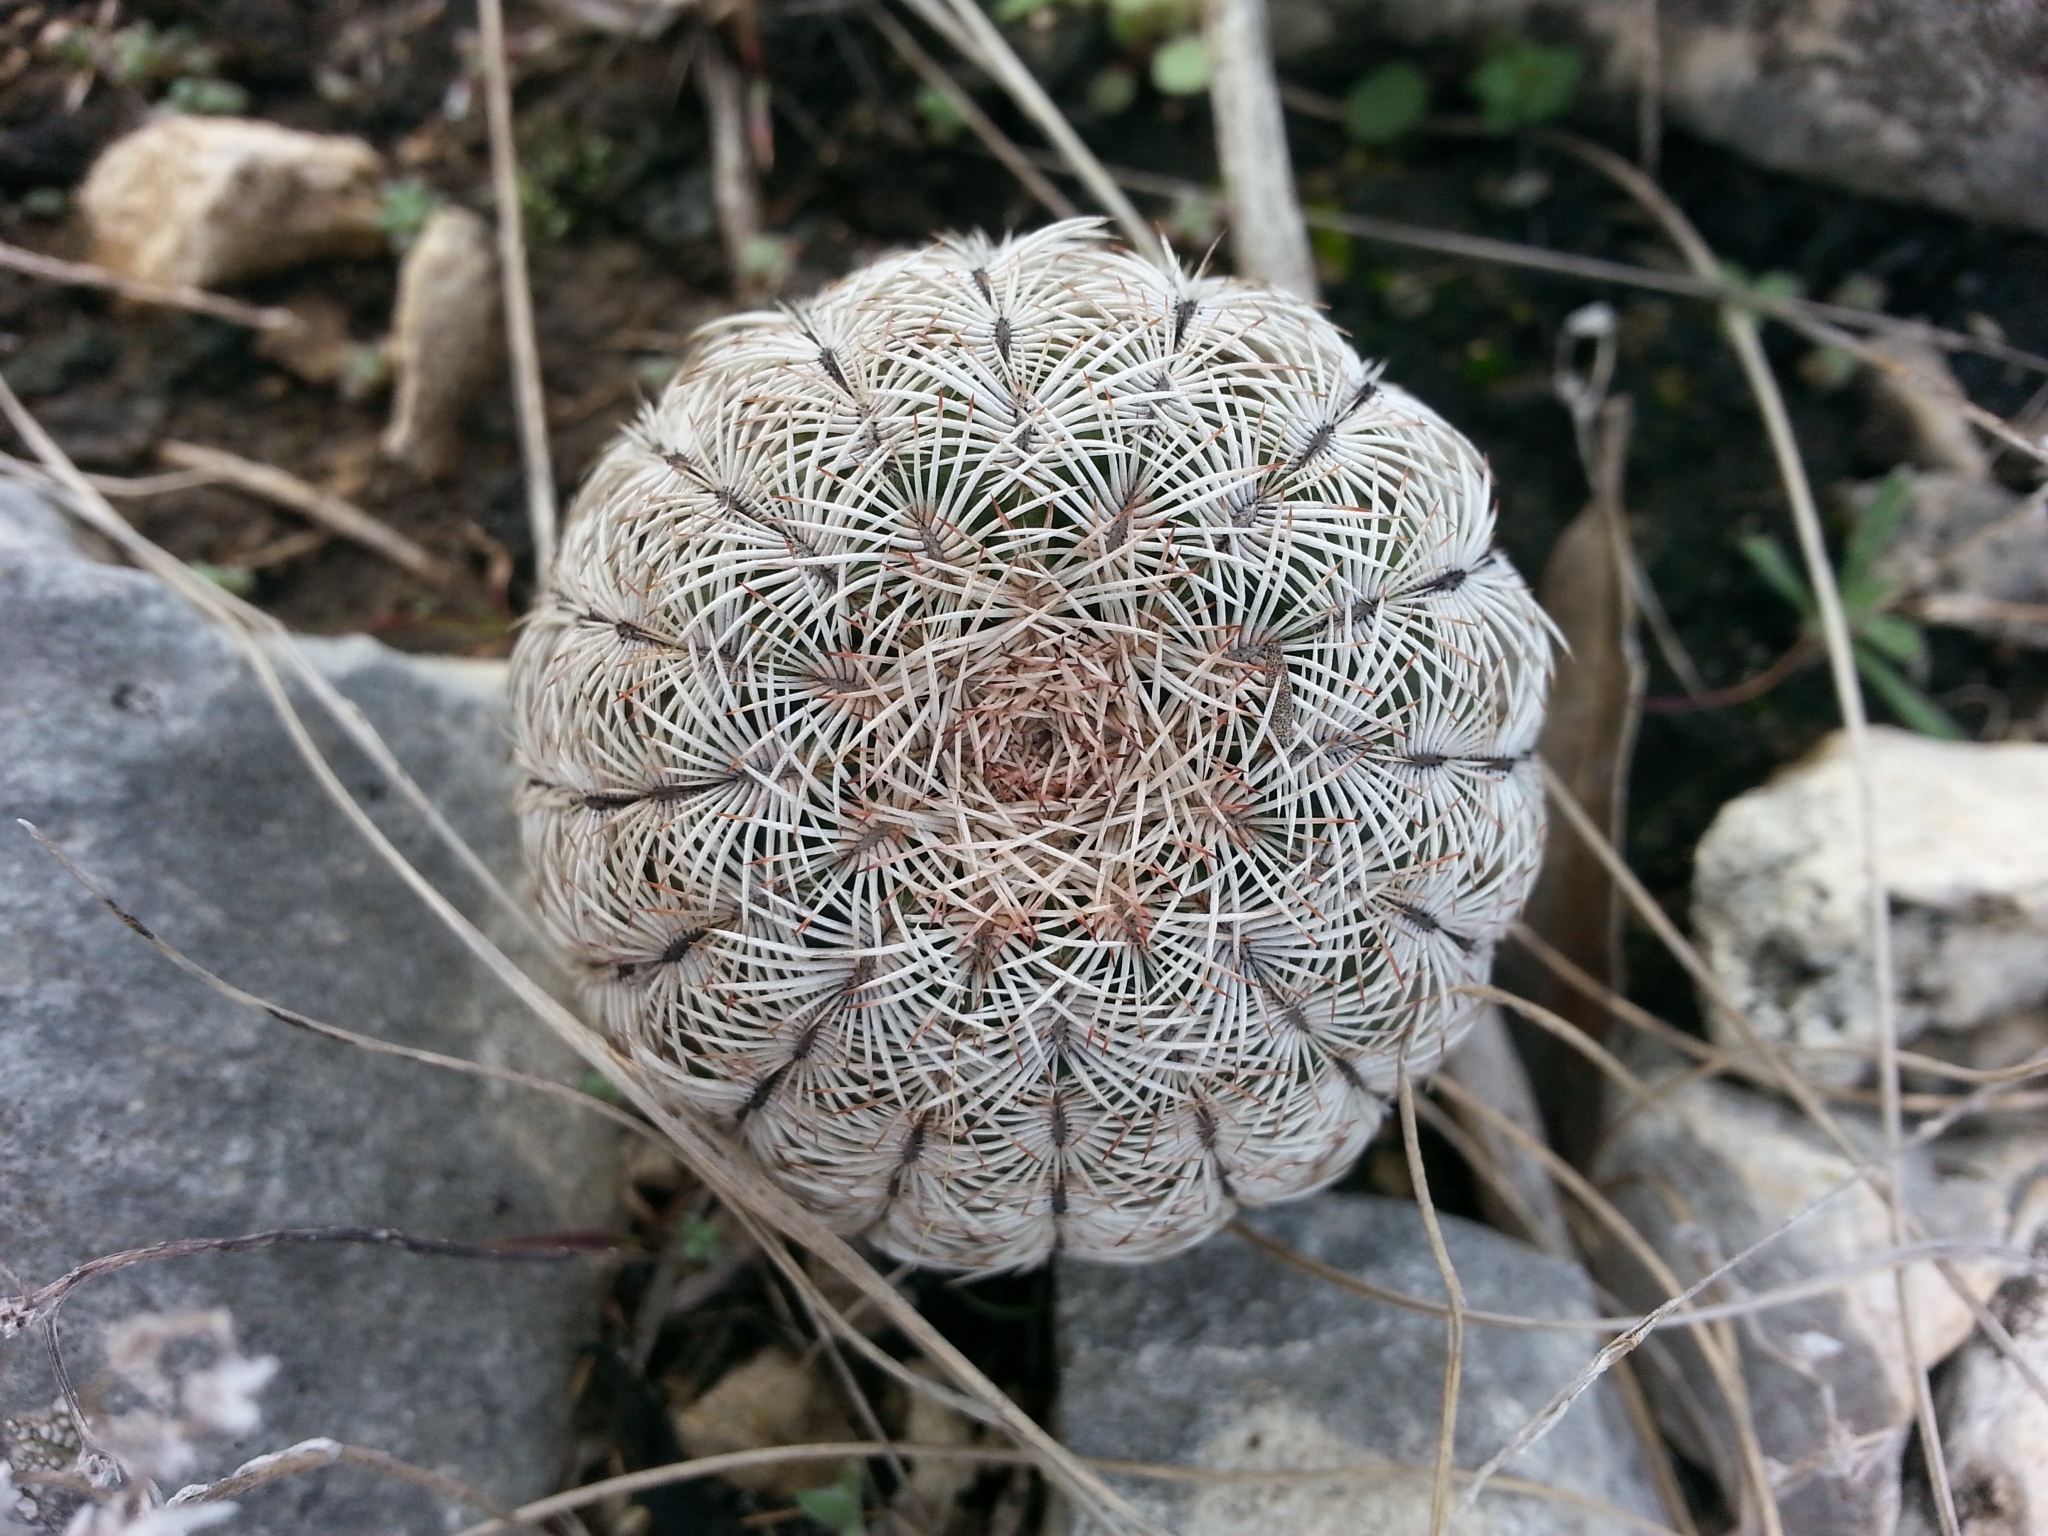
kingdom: Plantae
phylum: Tracheophyta
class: Magnoliopsida
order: Caryophyllales
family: Cactaceae
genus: Echinocereus
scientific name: Echinocereus reichenbachii
